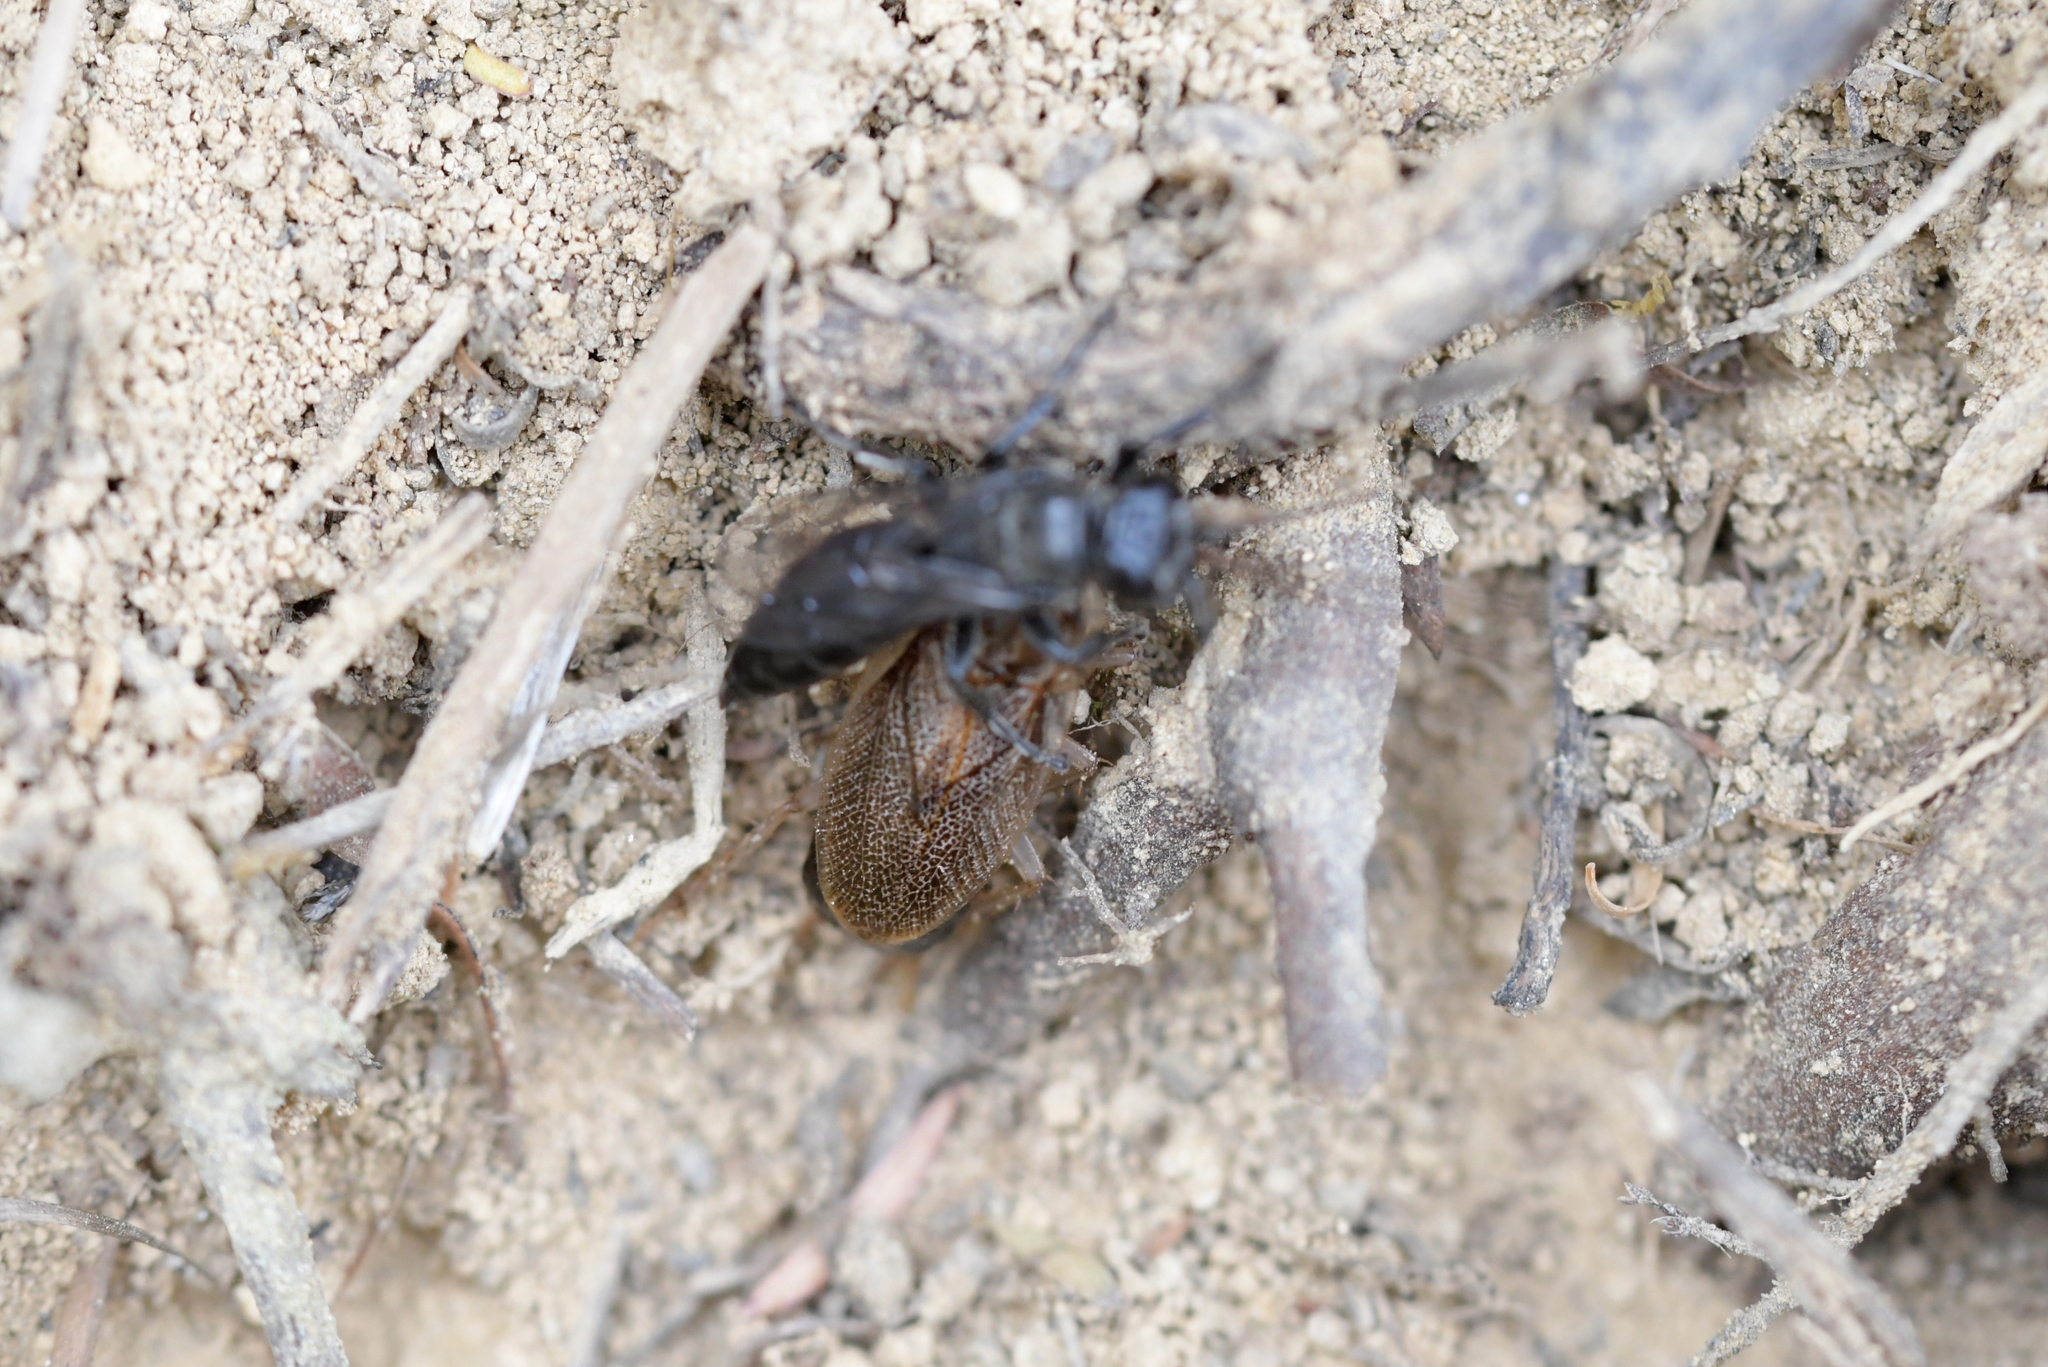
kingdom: Animalia
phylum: Arthropoda
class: Insecta
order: Hymenoptera
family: Crabronidae
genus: Tachysphex
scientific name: Tachysphex nigerrimus
